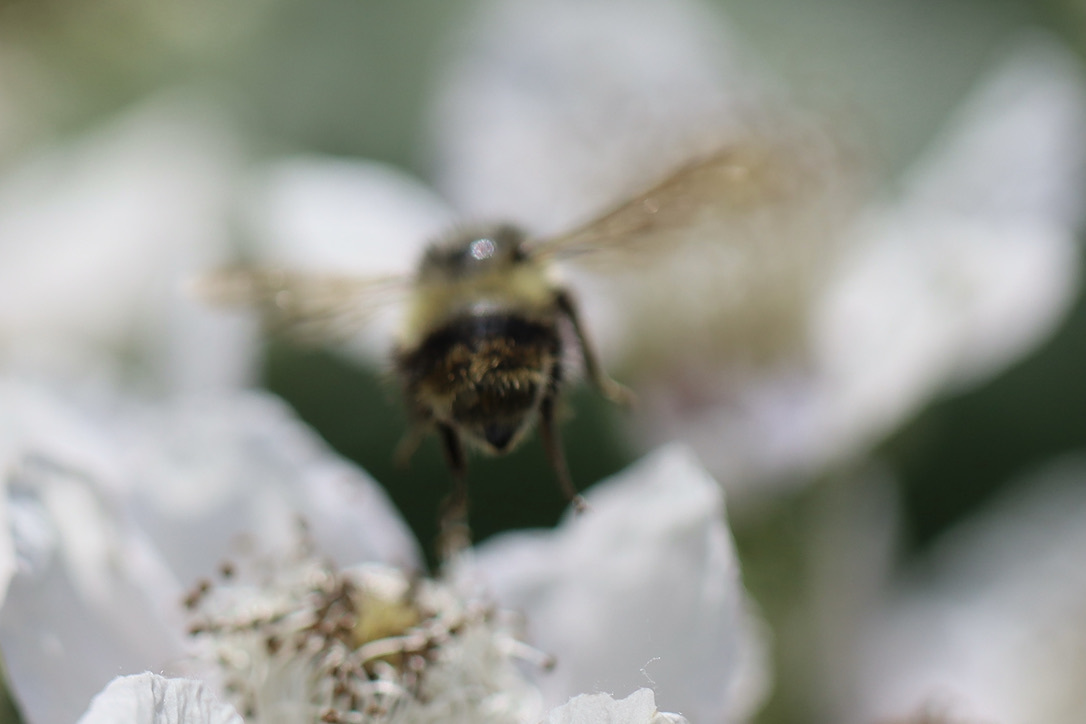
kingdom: Animalia
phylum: Arthropoda
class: Insecta
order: Hymenoptera
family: Apidae
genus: Bombus
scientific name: Bombus mixtus
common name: Fuzzy-horned bumble bee
